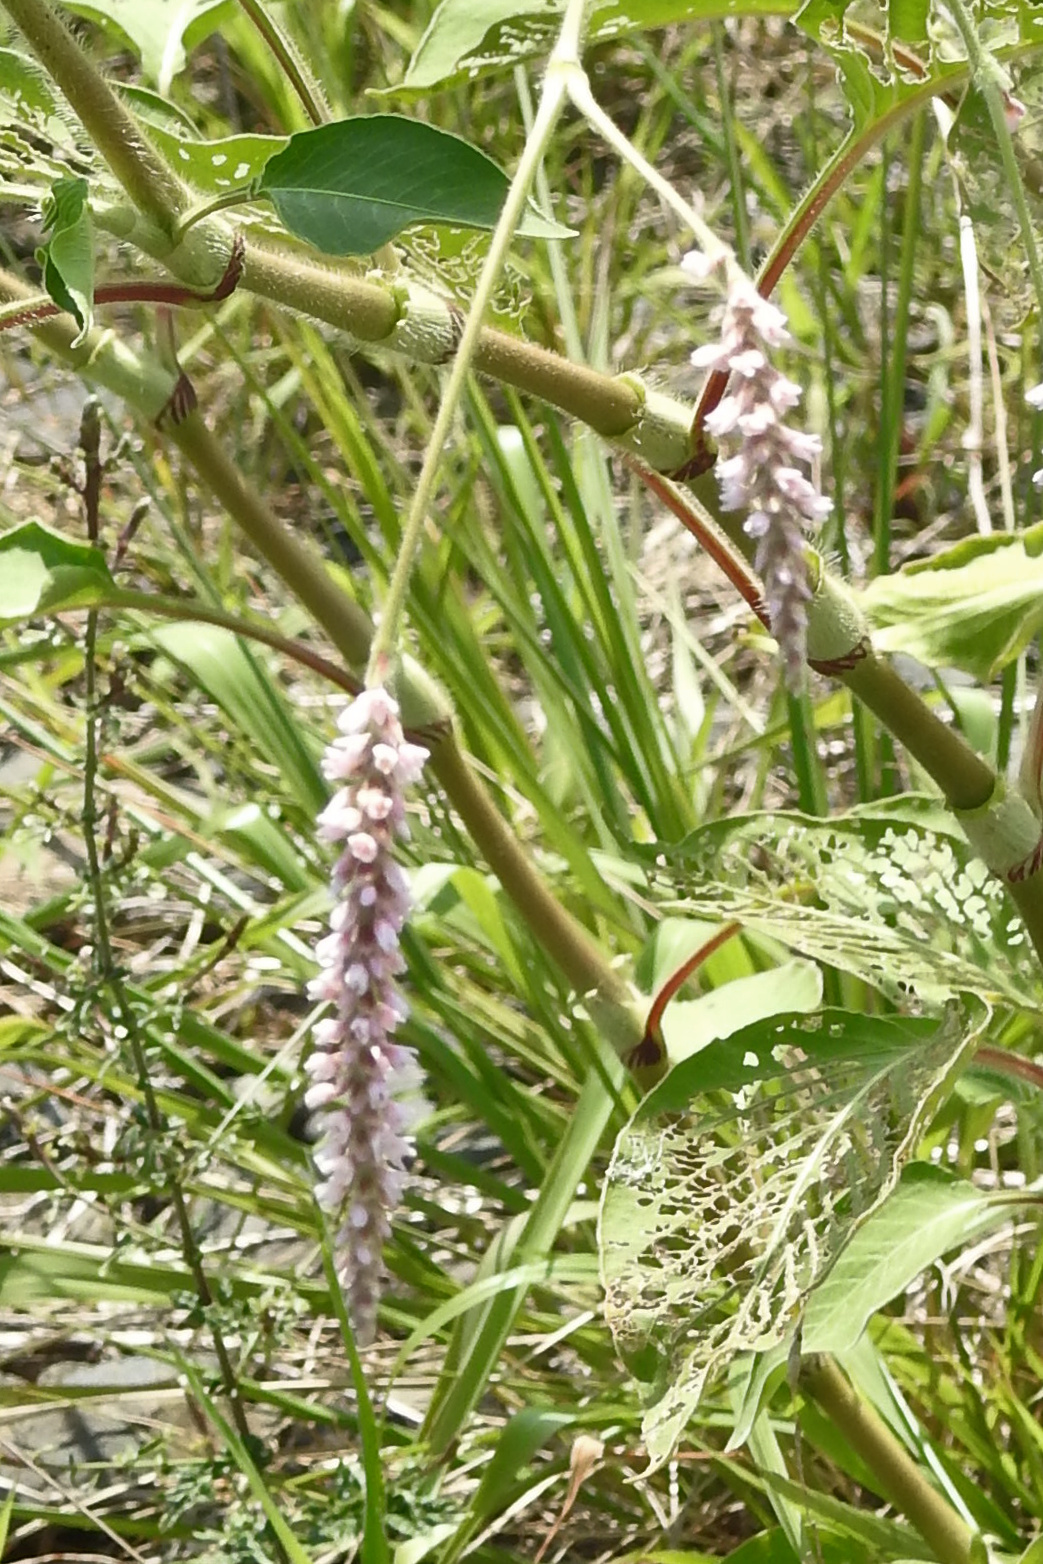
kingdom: Plantae
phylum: Tracheophyta
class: Magnoliopsida
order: Caryophyllales
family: Polygonaceae
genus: Persicaria
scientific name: Persicaria orientalis
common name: Kiss-me-over-the-garden-gate
